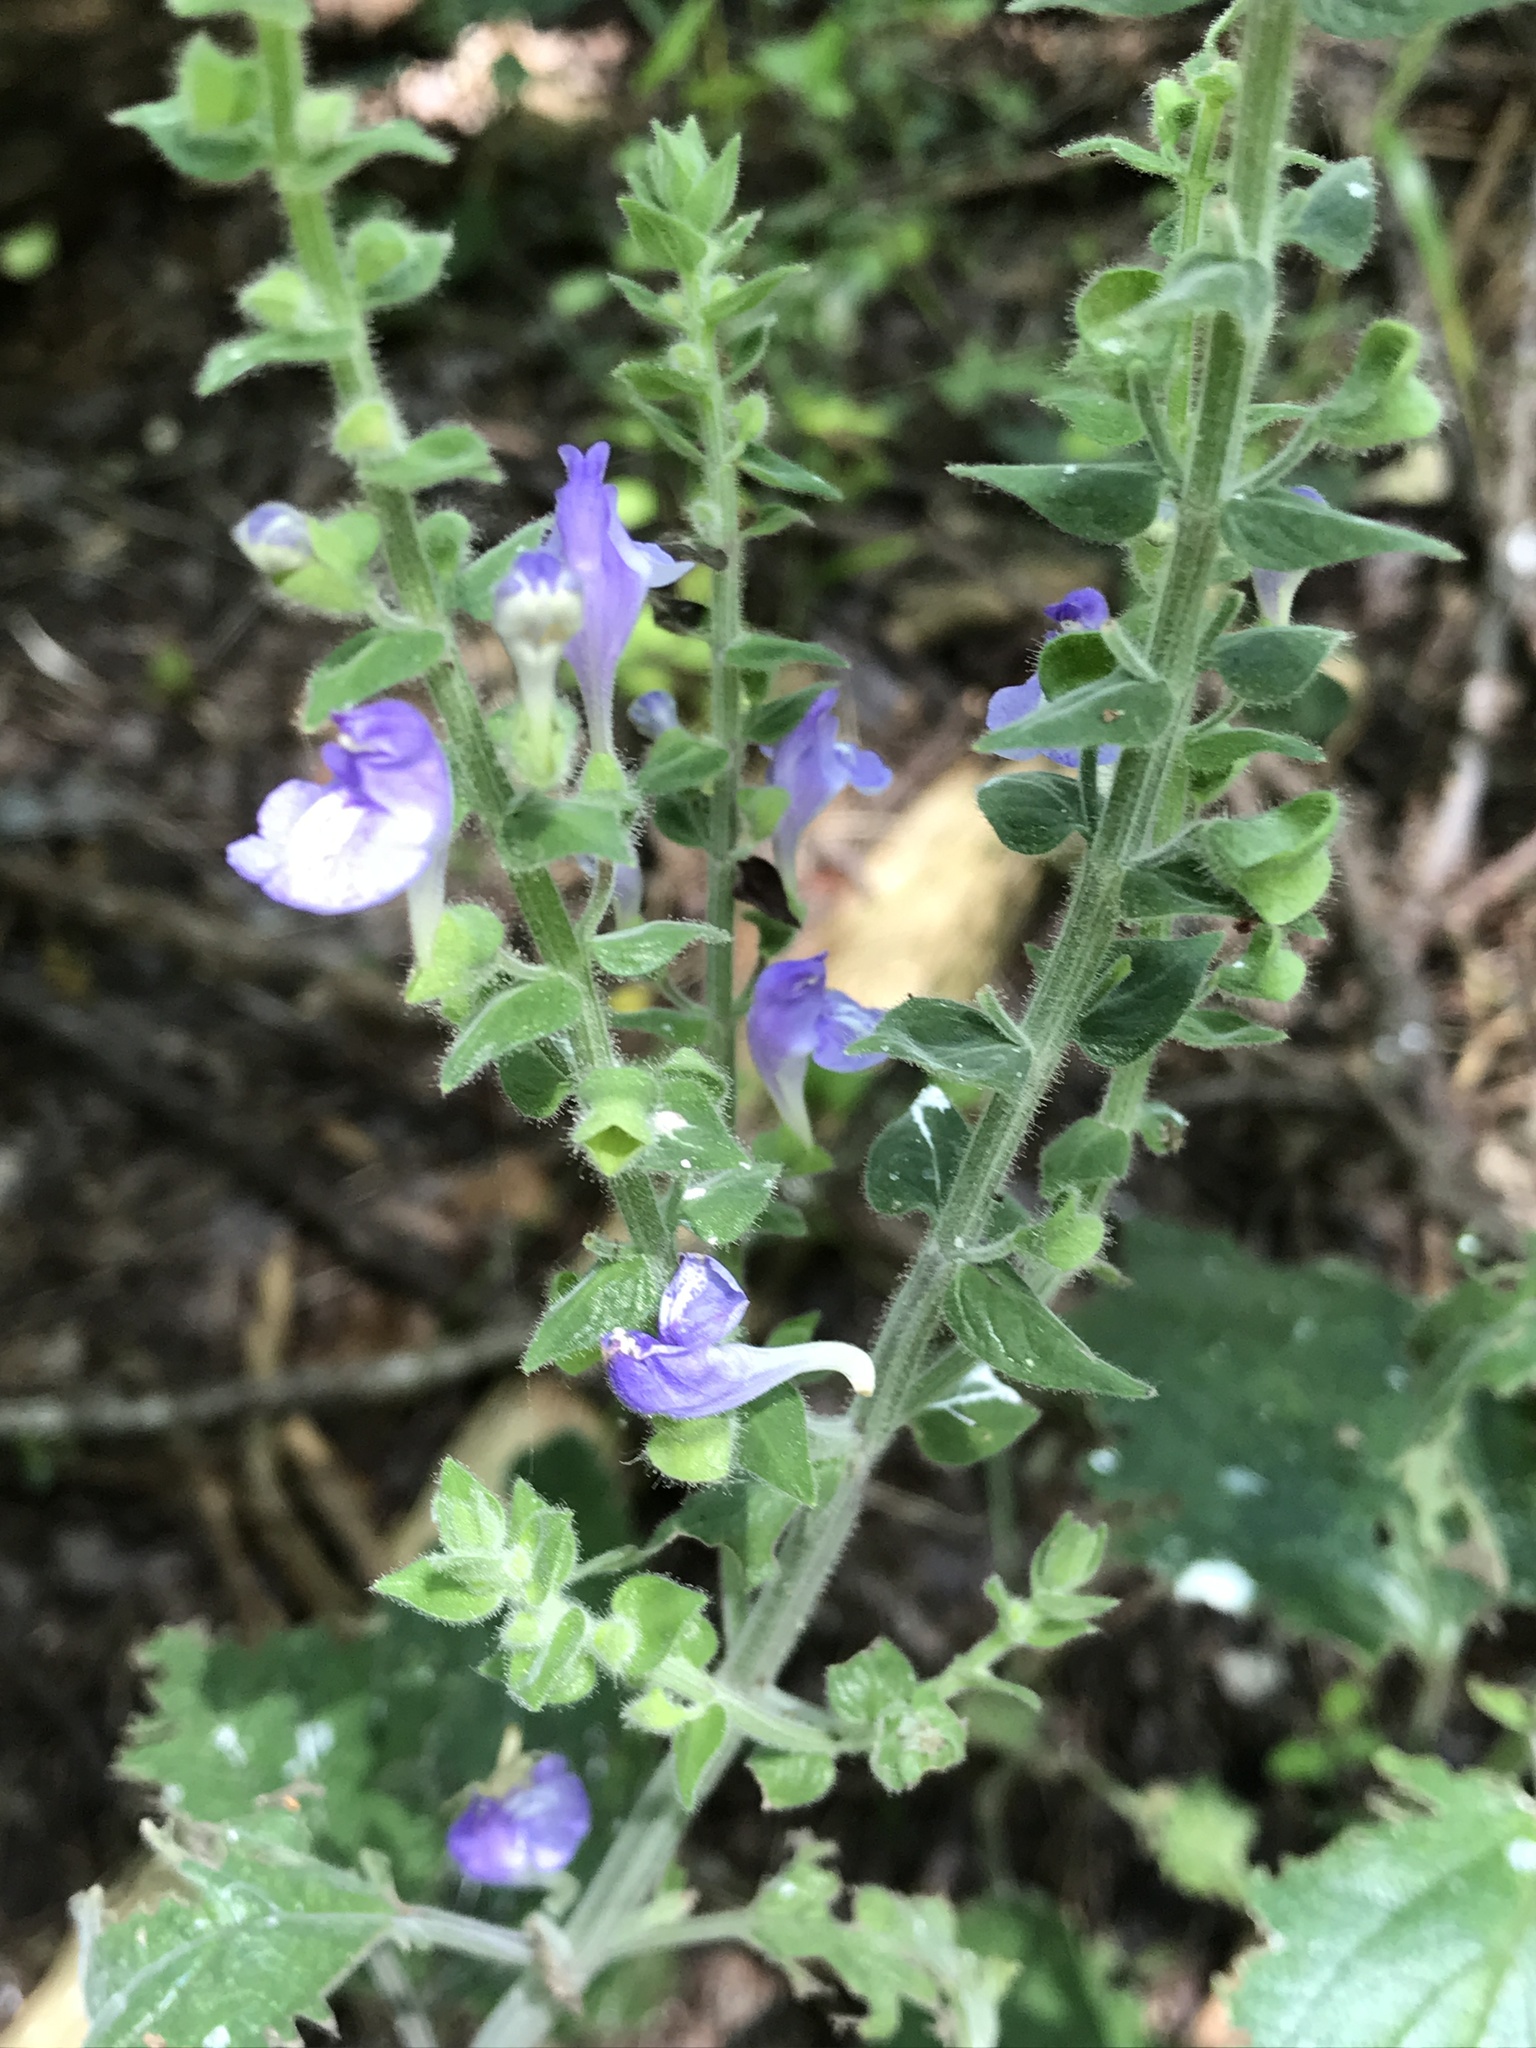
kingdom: Plantae
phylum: Tracheophyta
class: Magnoliopsida
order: Lamiales
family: Lamiaceae
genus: Scutellaria
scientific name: Scutellaria ovata
